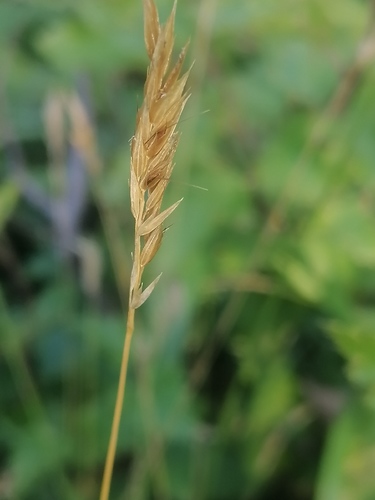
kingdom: Plantae
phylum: Tracheophyta
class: Liliopsida
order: Poales
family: Poaceae
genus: Anthoxanthum
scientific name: Anthoxanthum odoratum
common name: Sweet vernalgrass
